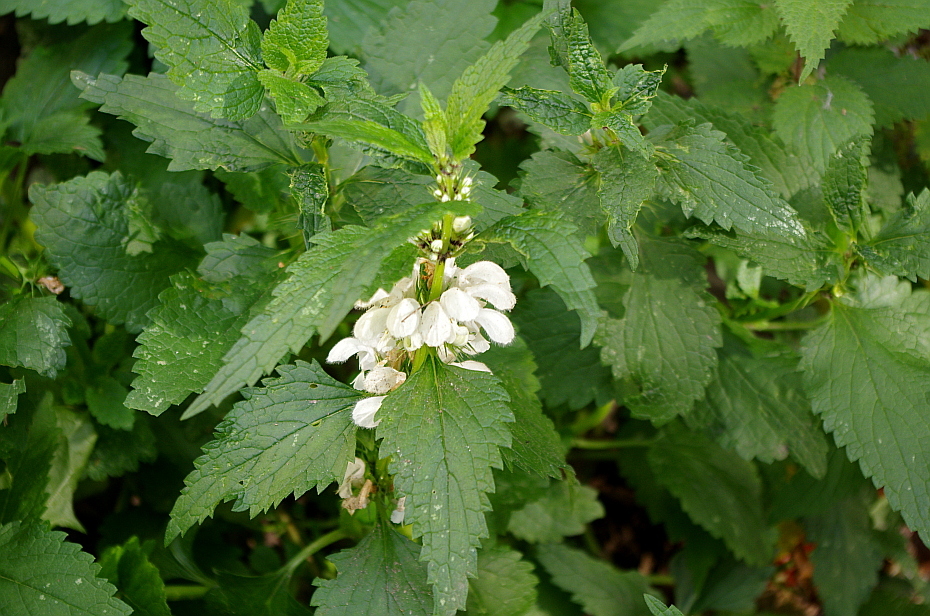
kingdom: Plantae
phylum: Tracheophyta
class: Magnoliopsida
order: Lamiales
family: Lamiaceae
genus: Lamium
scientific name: Lamium album
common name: White dead-nettle
